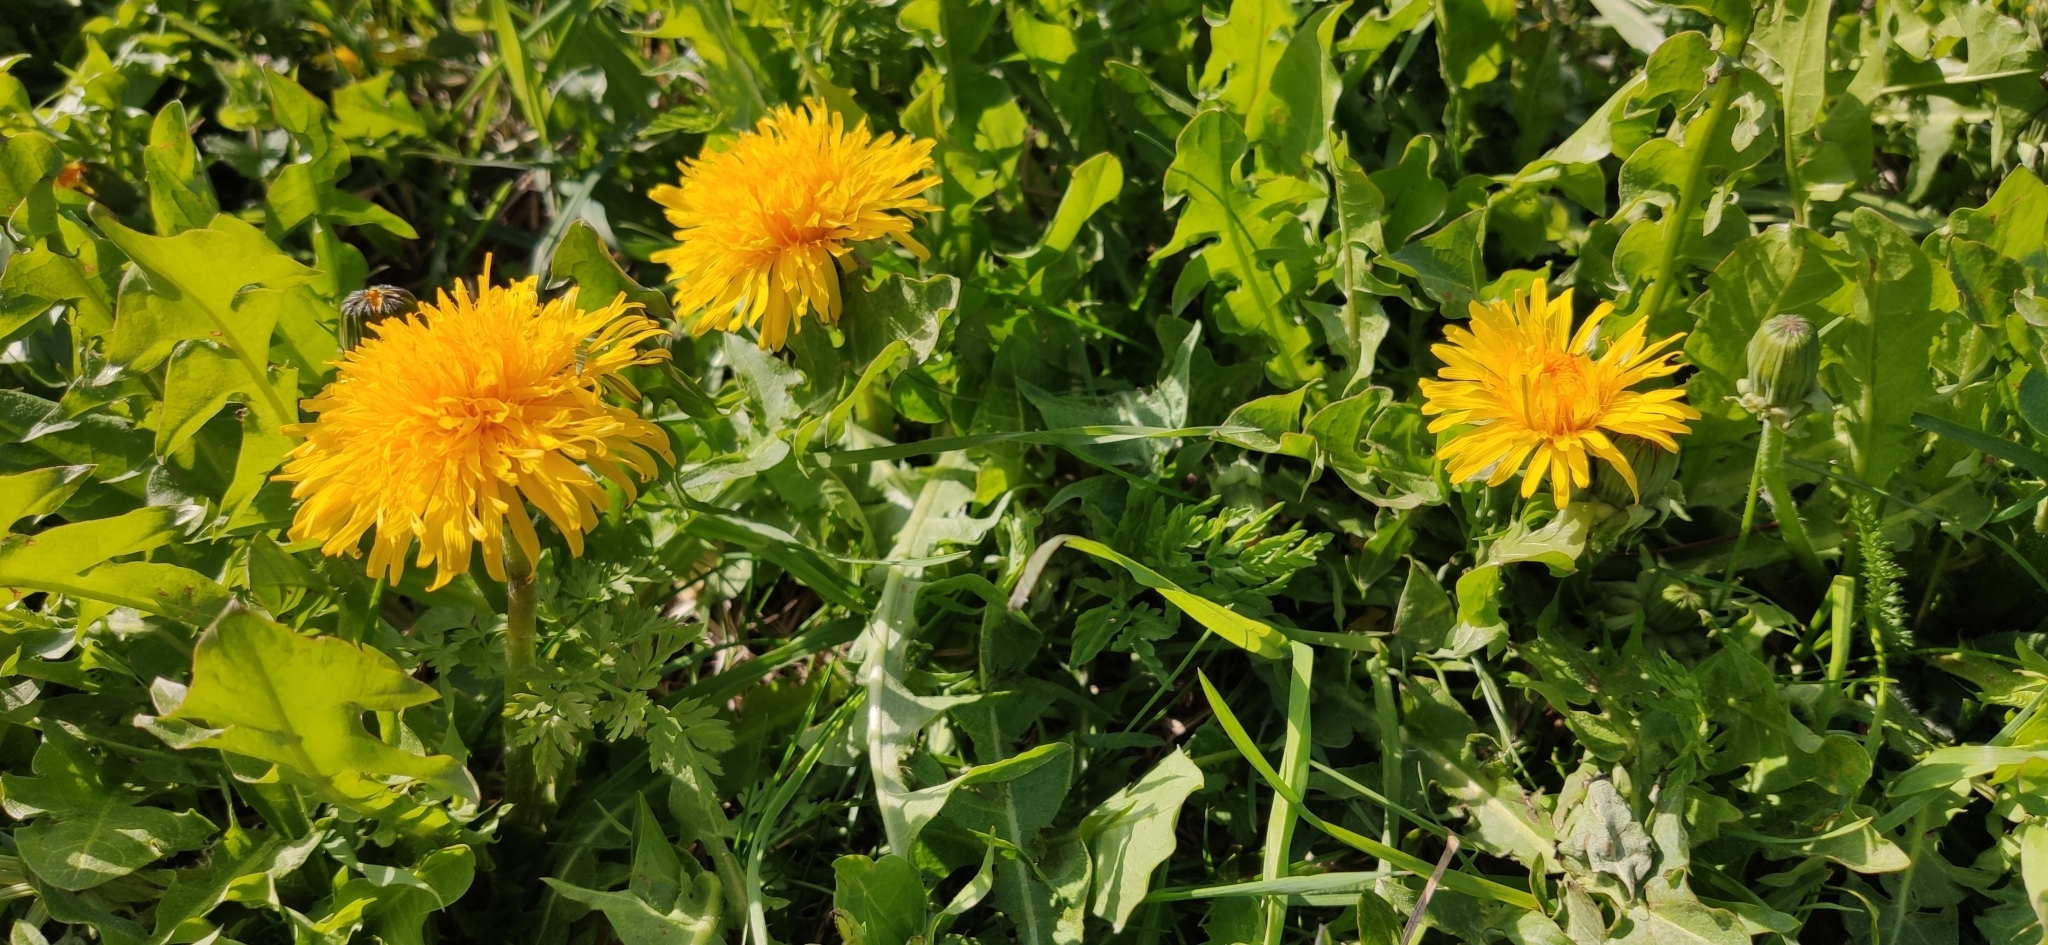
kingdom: Plantae
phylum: Tracheophyta
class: Magnoliopsida
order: Asterales
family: Asteraceae
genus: Taraxacum
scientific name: Taraxacum officinale
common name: Common dandelion
